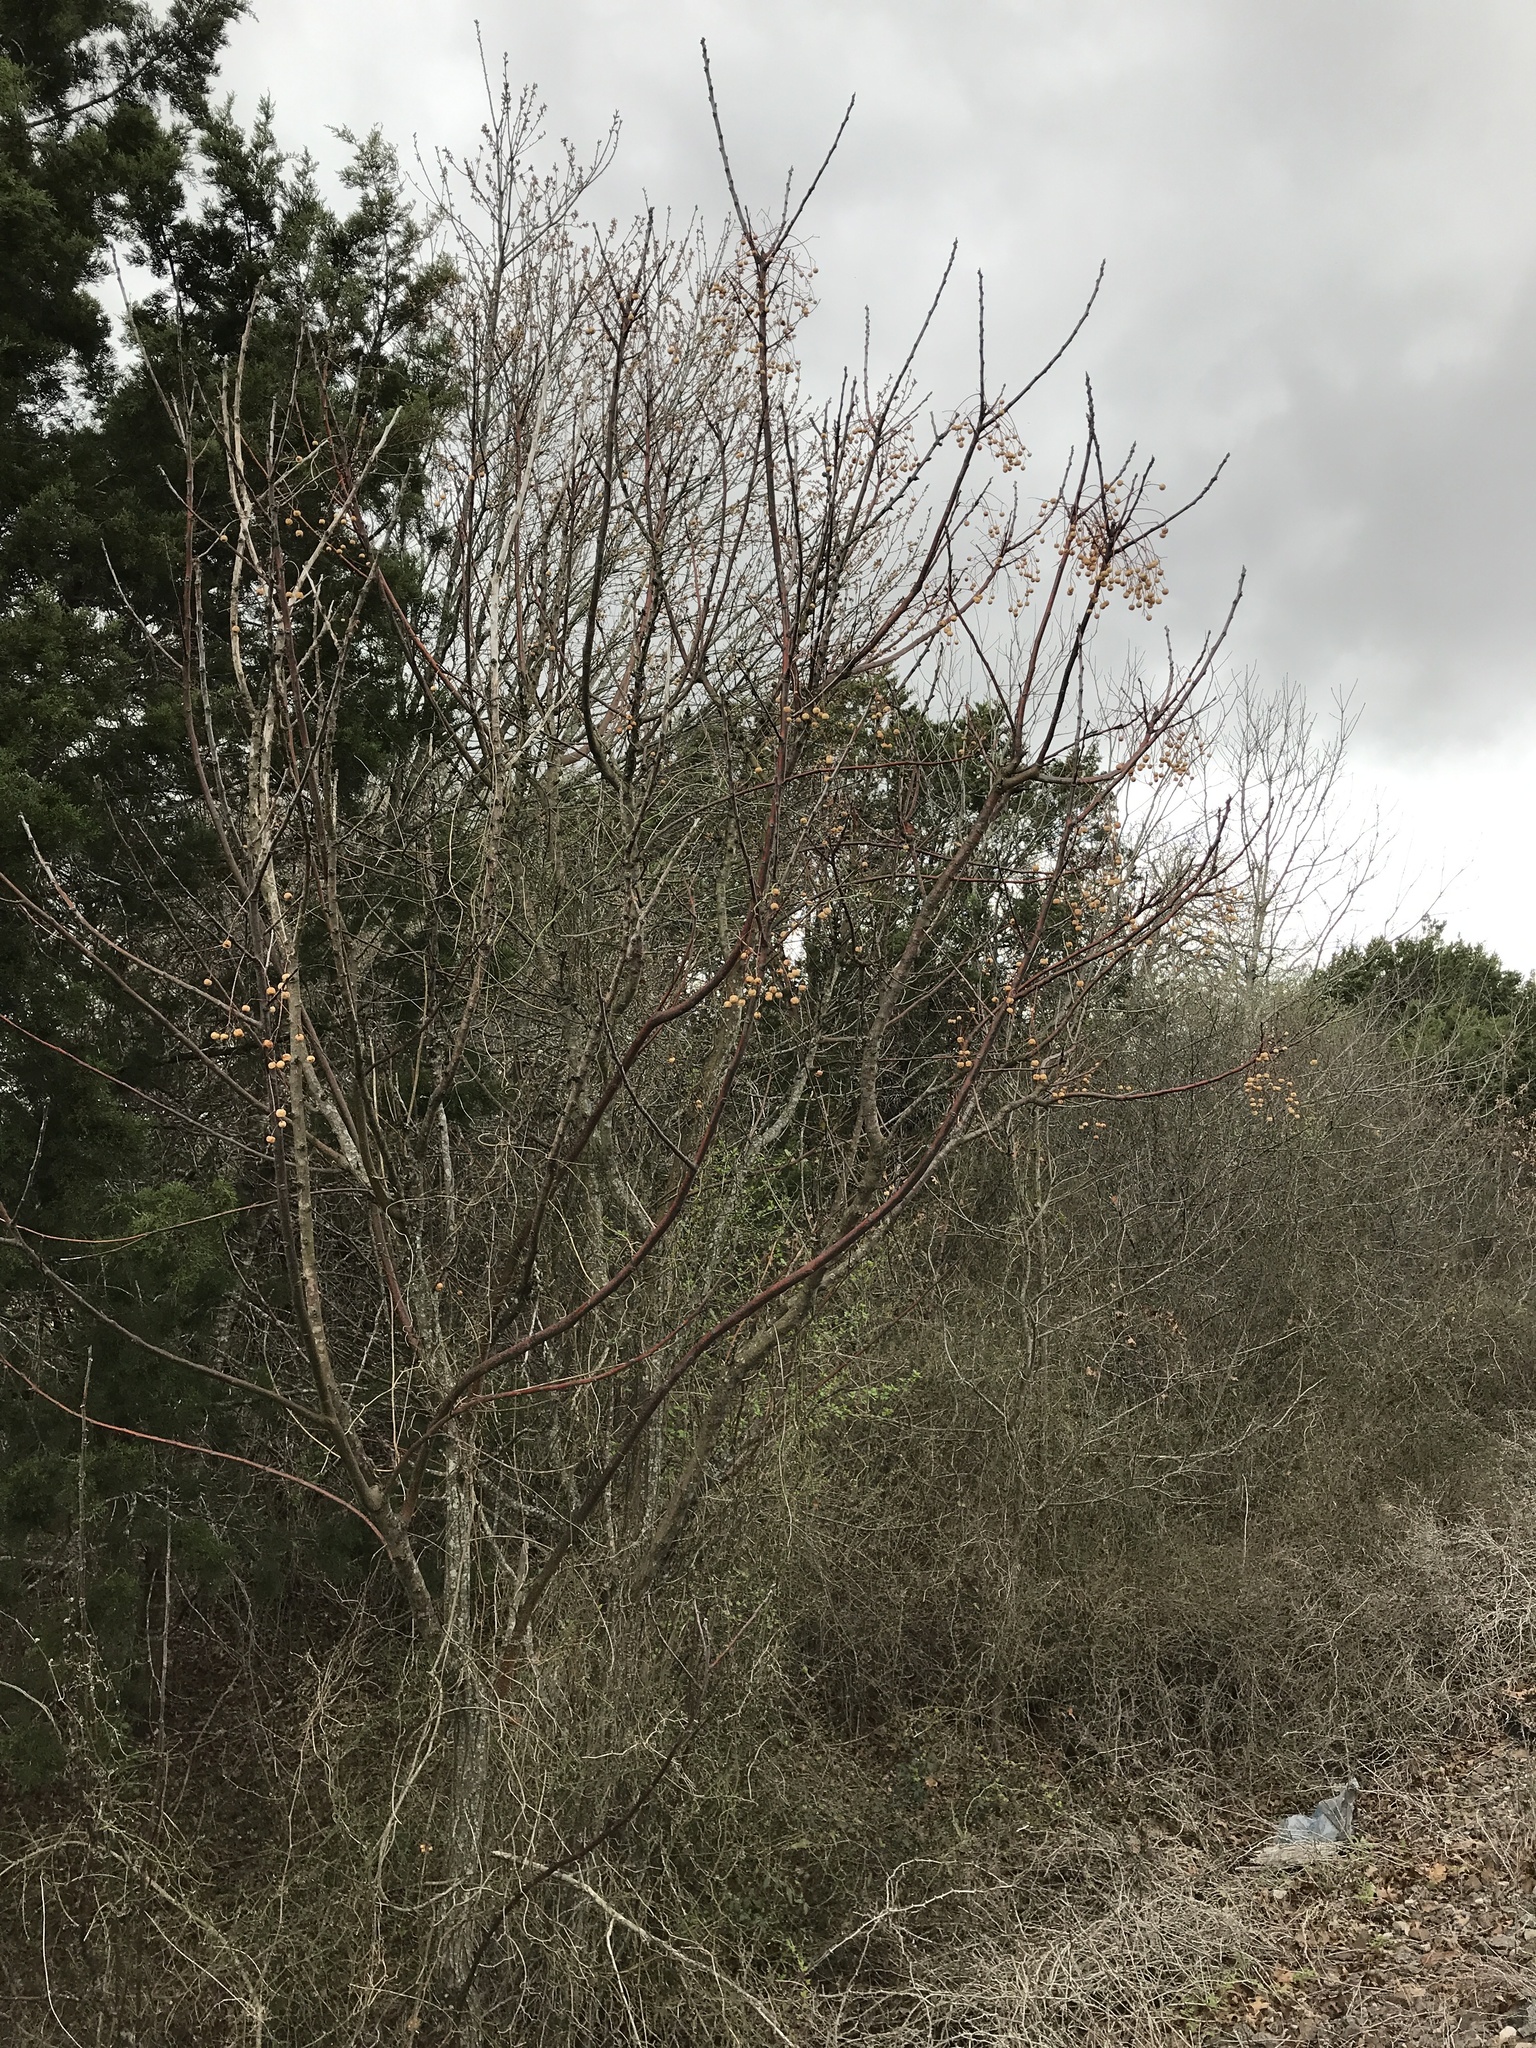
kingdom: Plantae
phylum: Tracheophyta
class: Magnoliopsida
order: Sapindales
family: Meliaceae
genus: Melia
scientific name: Melia azedarach
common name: Chinaberrytree
